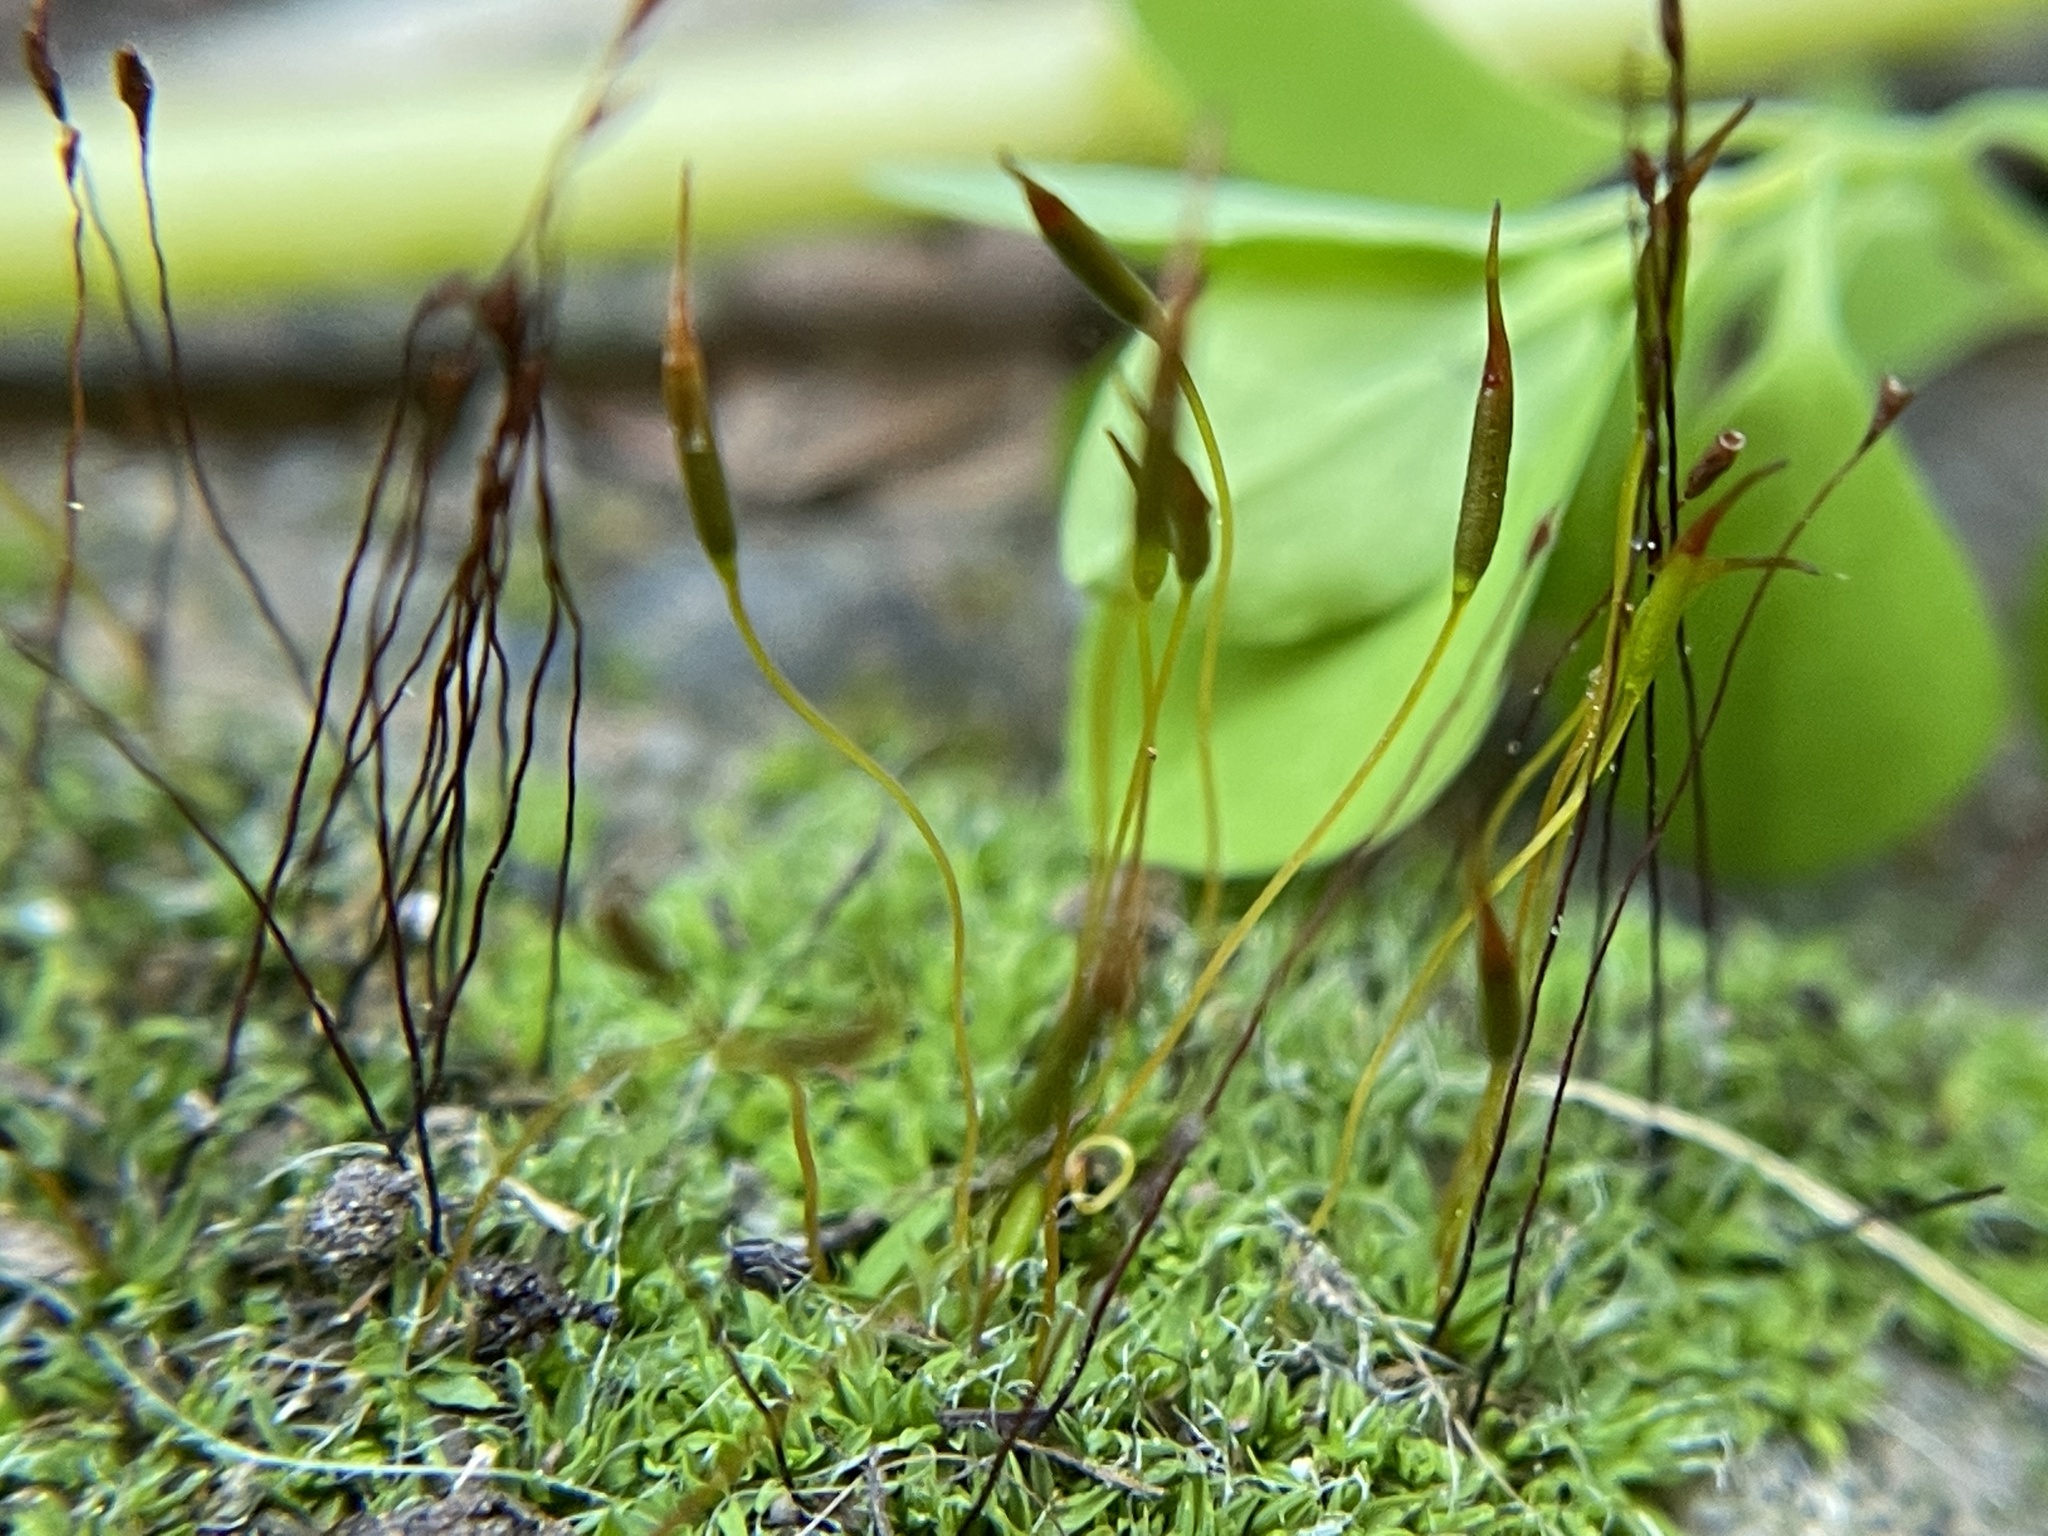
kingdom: Plantae
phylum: Bryophyta
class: Bryopsida
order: Pottiales
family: Pottiaceae
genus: Tortula
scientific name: Tortula muralis
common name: Wall screw-moss
